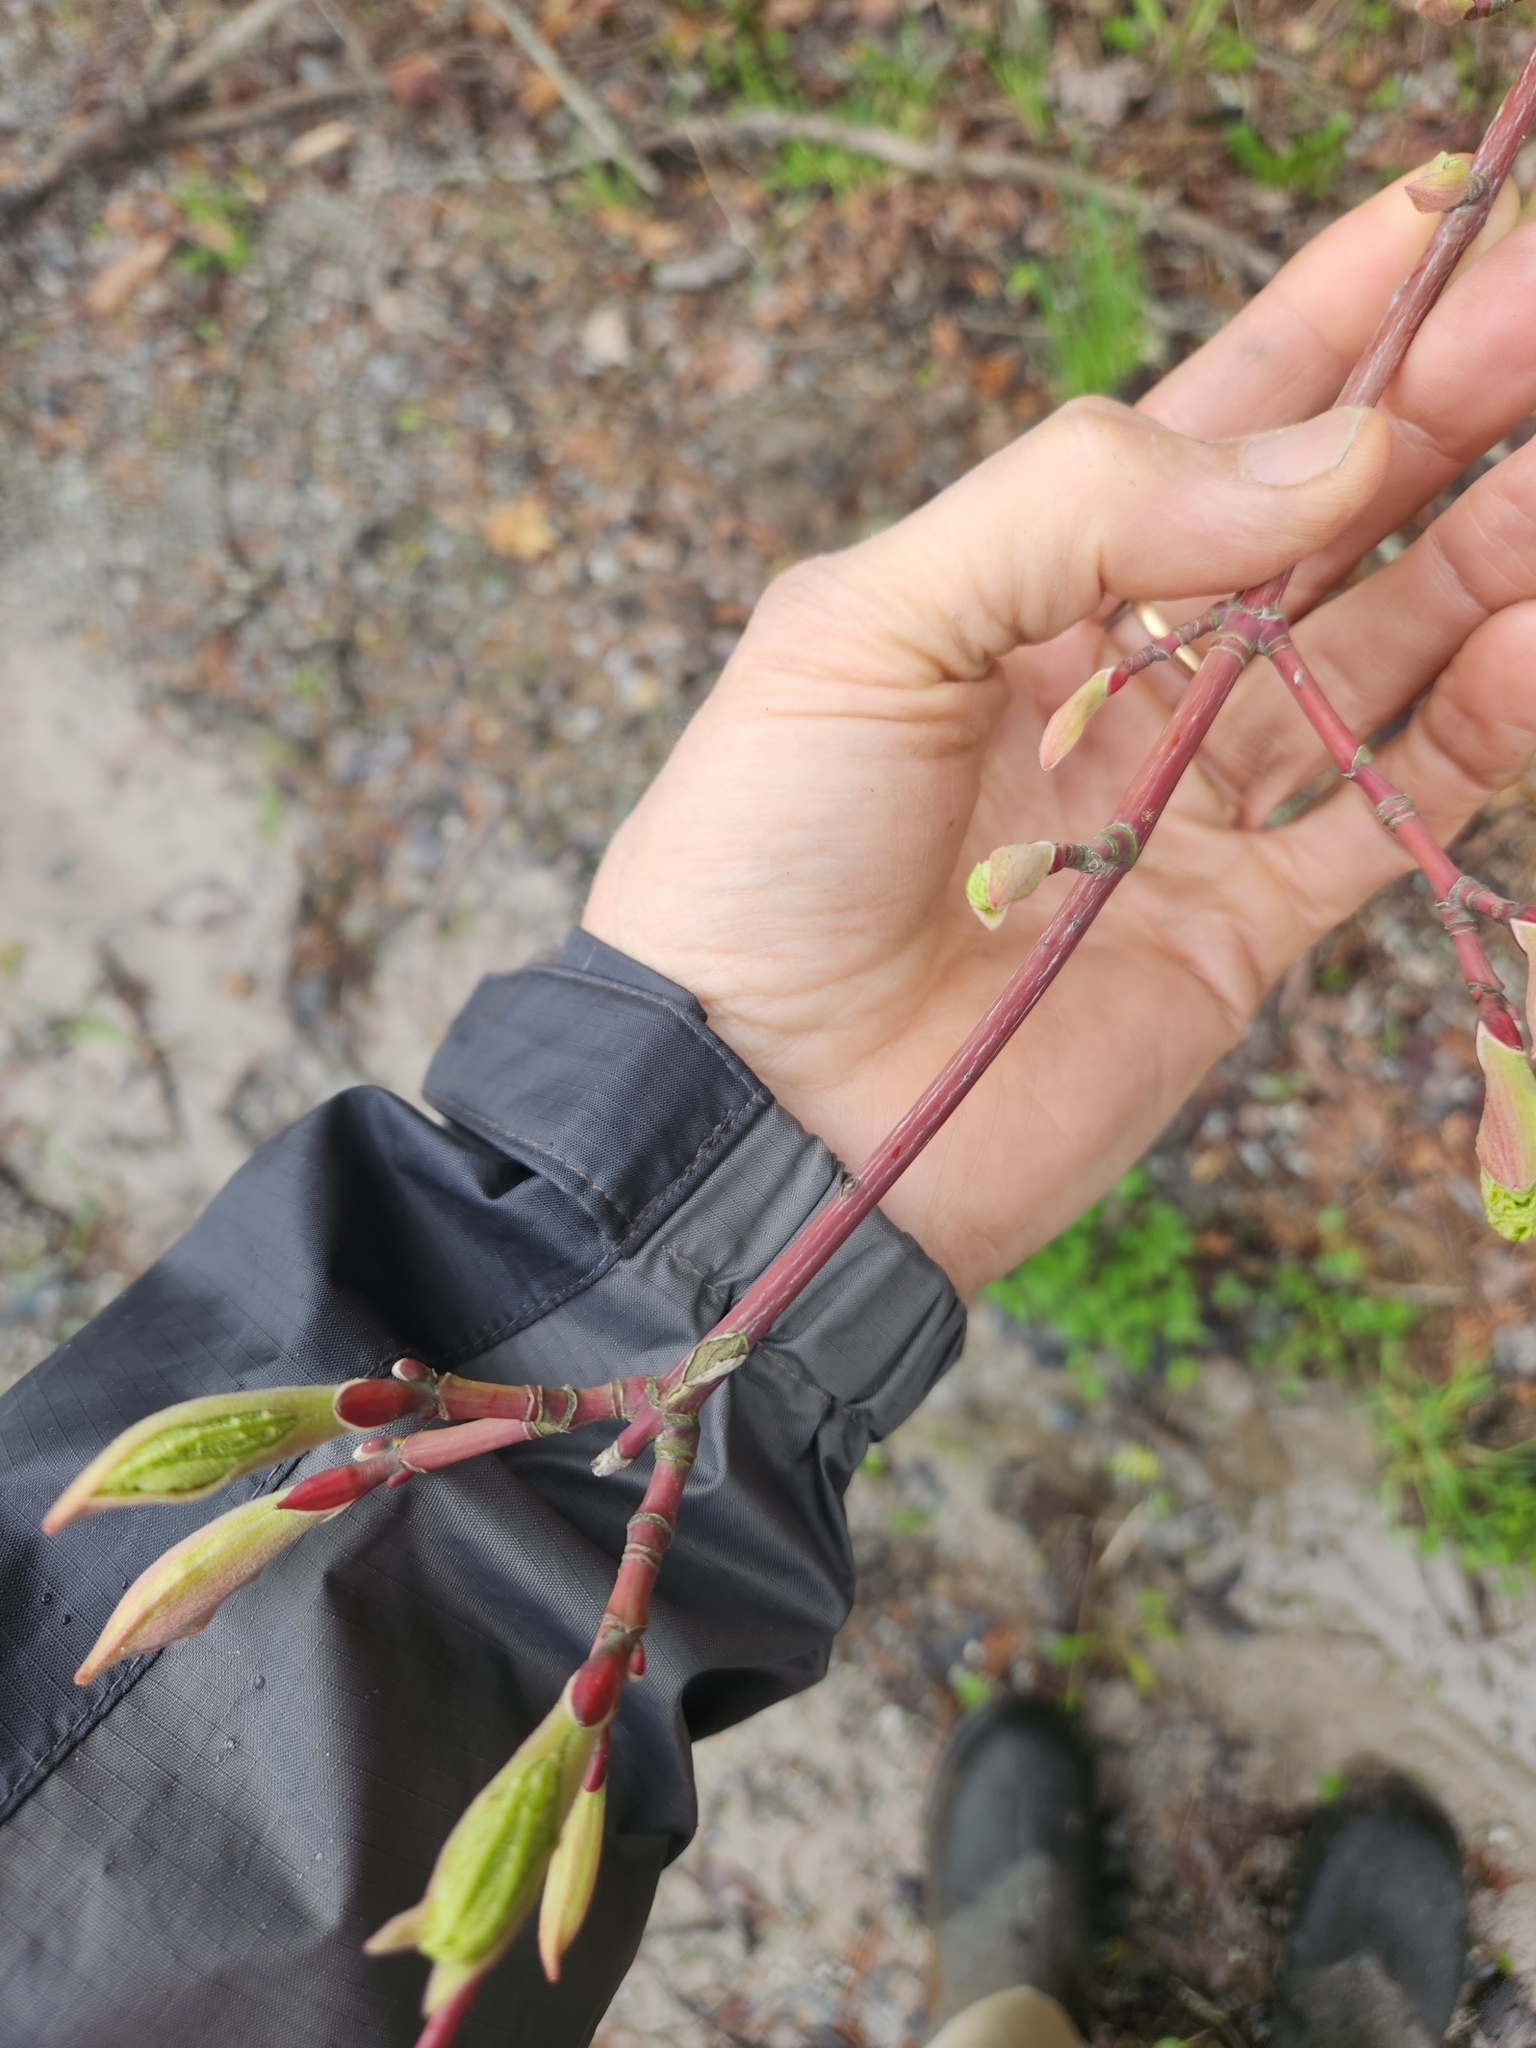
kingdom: Plantae
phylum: Tracheophyta
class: Magnoliopsida
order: Sapindales
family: Sapindaceae
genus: Acer
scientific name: Acer pensylvanicum
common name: Moosewood
